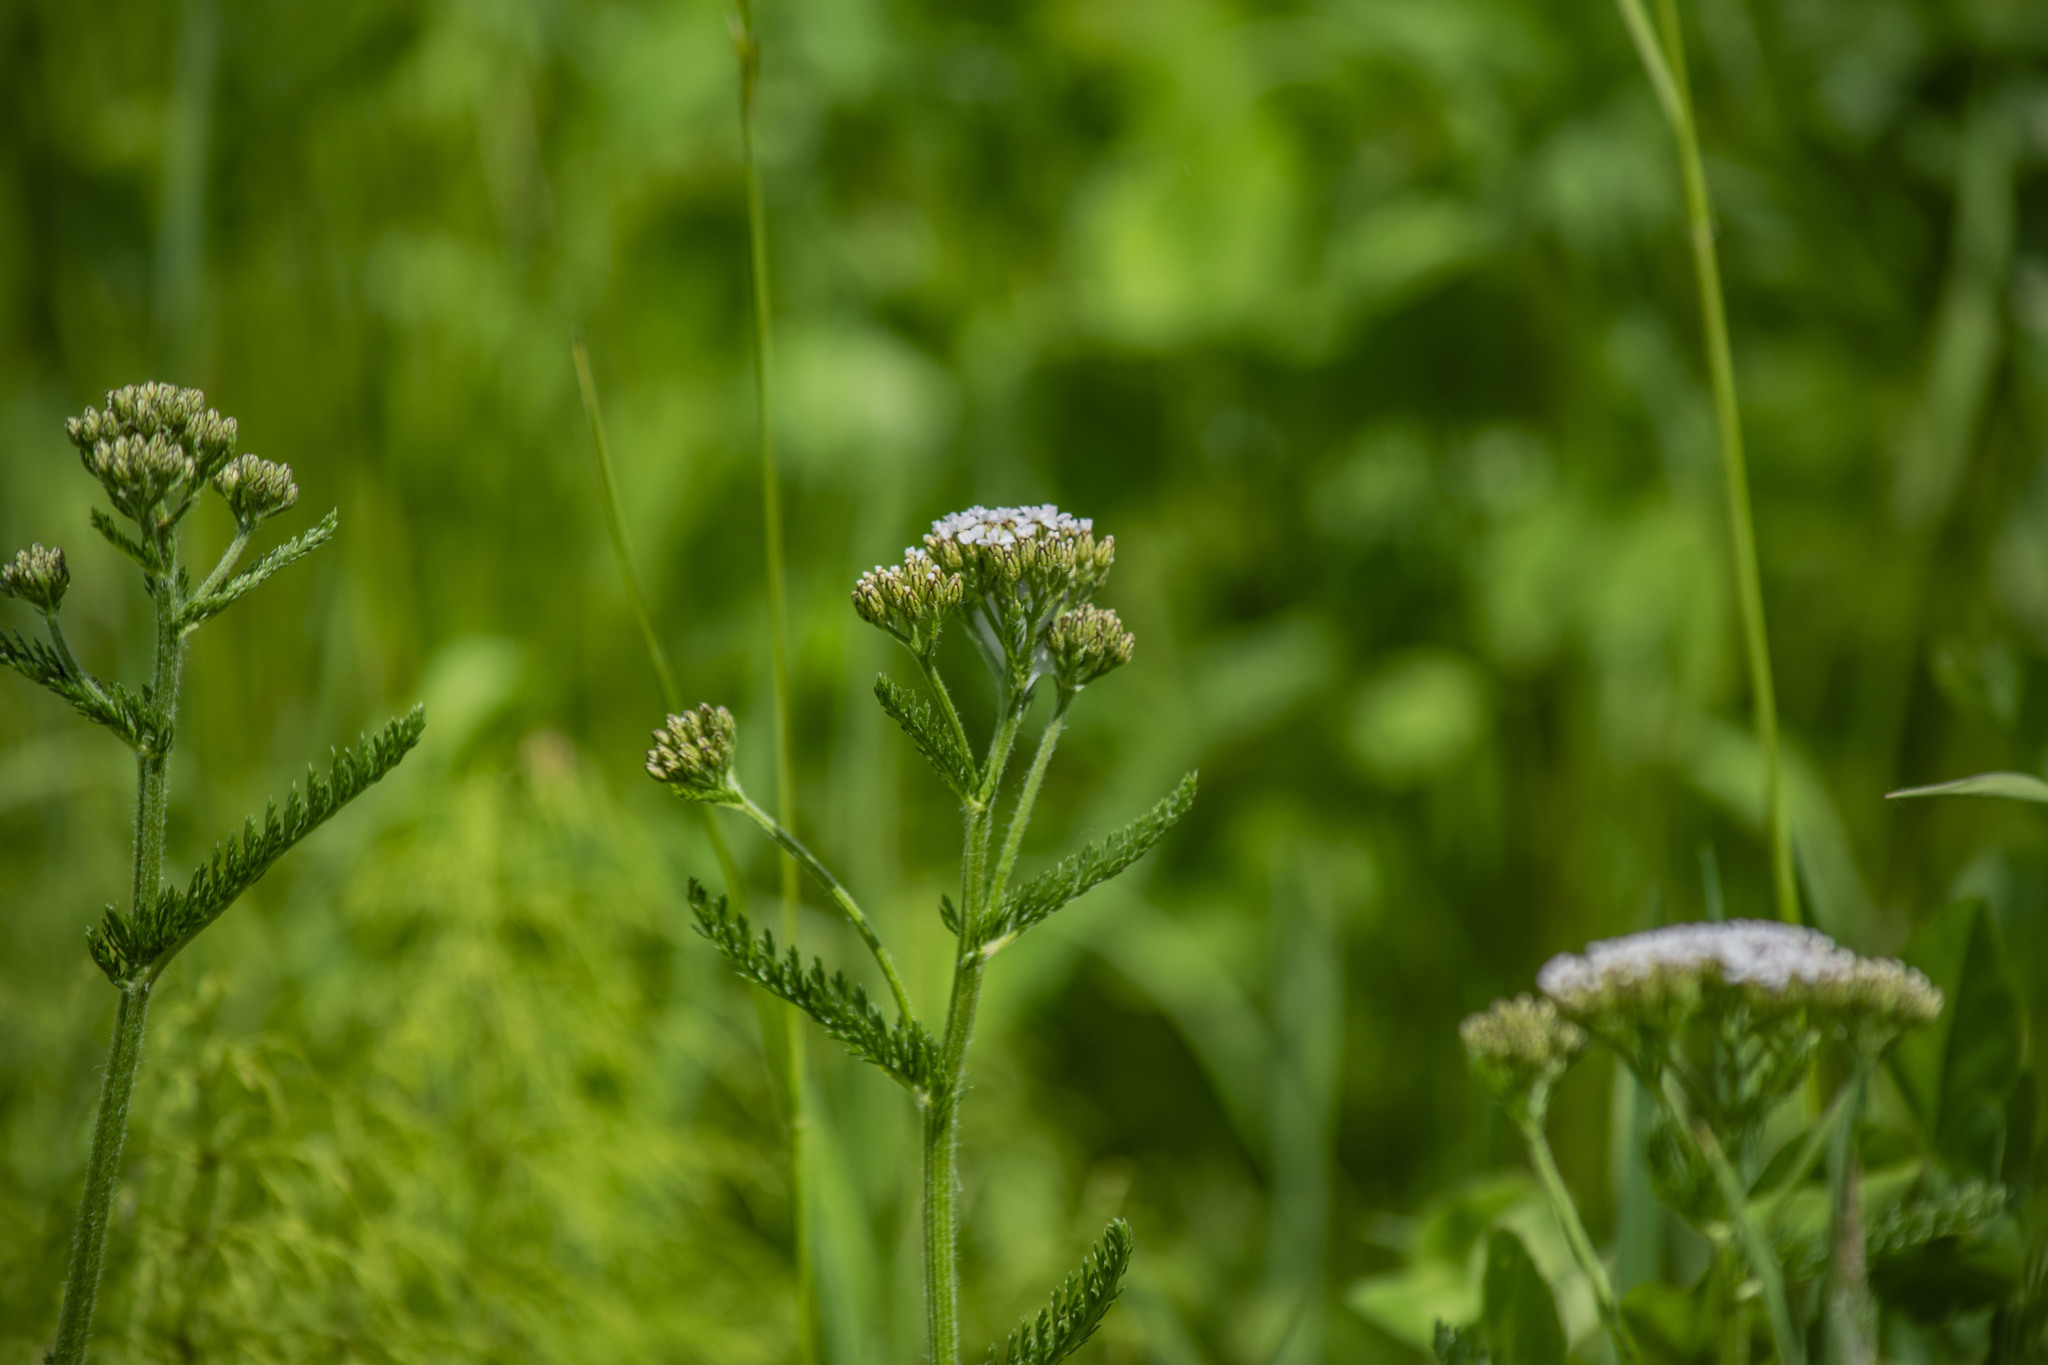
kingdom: Plantae
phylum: Tracheophyta
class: Magnoliopsida
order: Asterales
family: Asteraceae
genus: Achillea
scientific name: Achillea millefolium
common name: Yarrow
